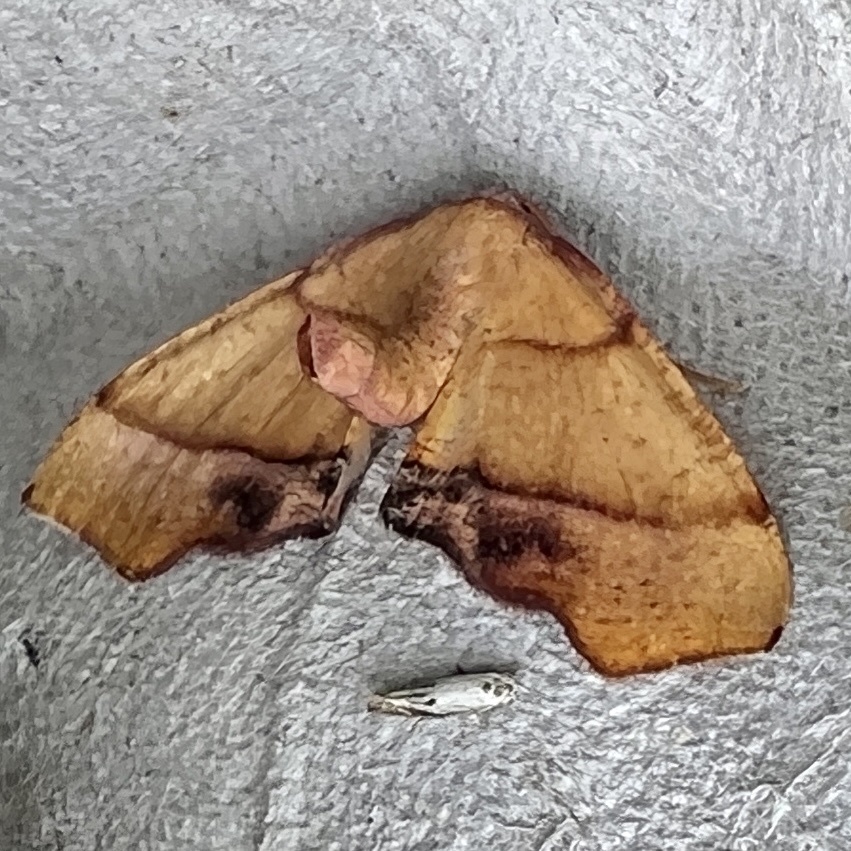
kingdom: Animalia
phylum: Arthropoda
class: Insecta
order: Lepidoptera
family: Geometridae
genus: Plagodis
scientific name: Plagodis phlogosaria
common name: Straight-lined plagodis
